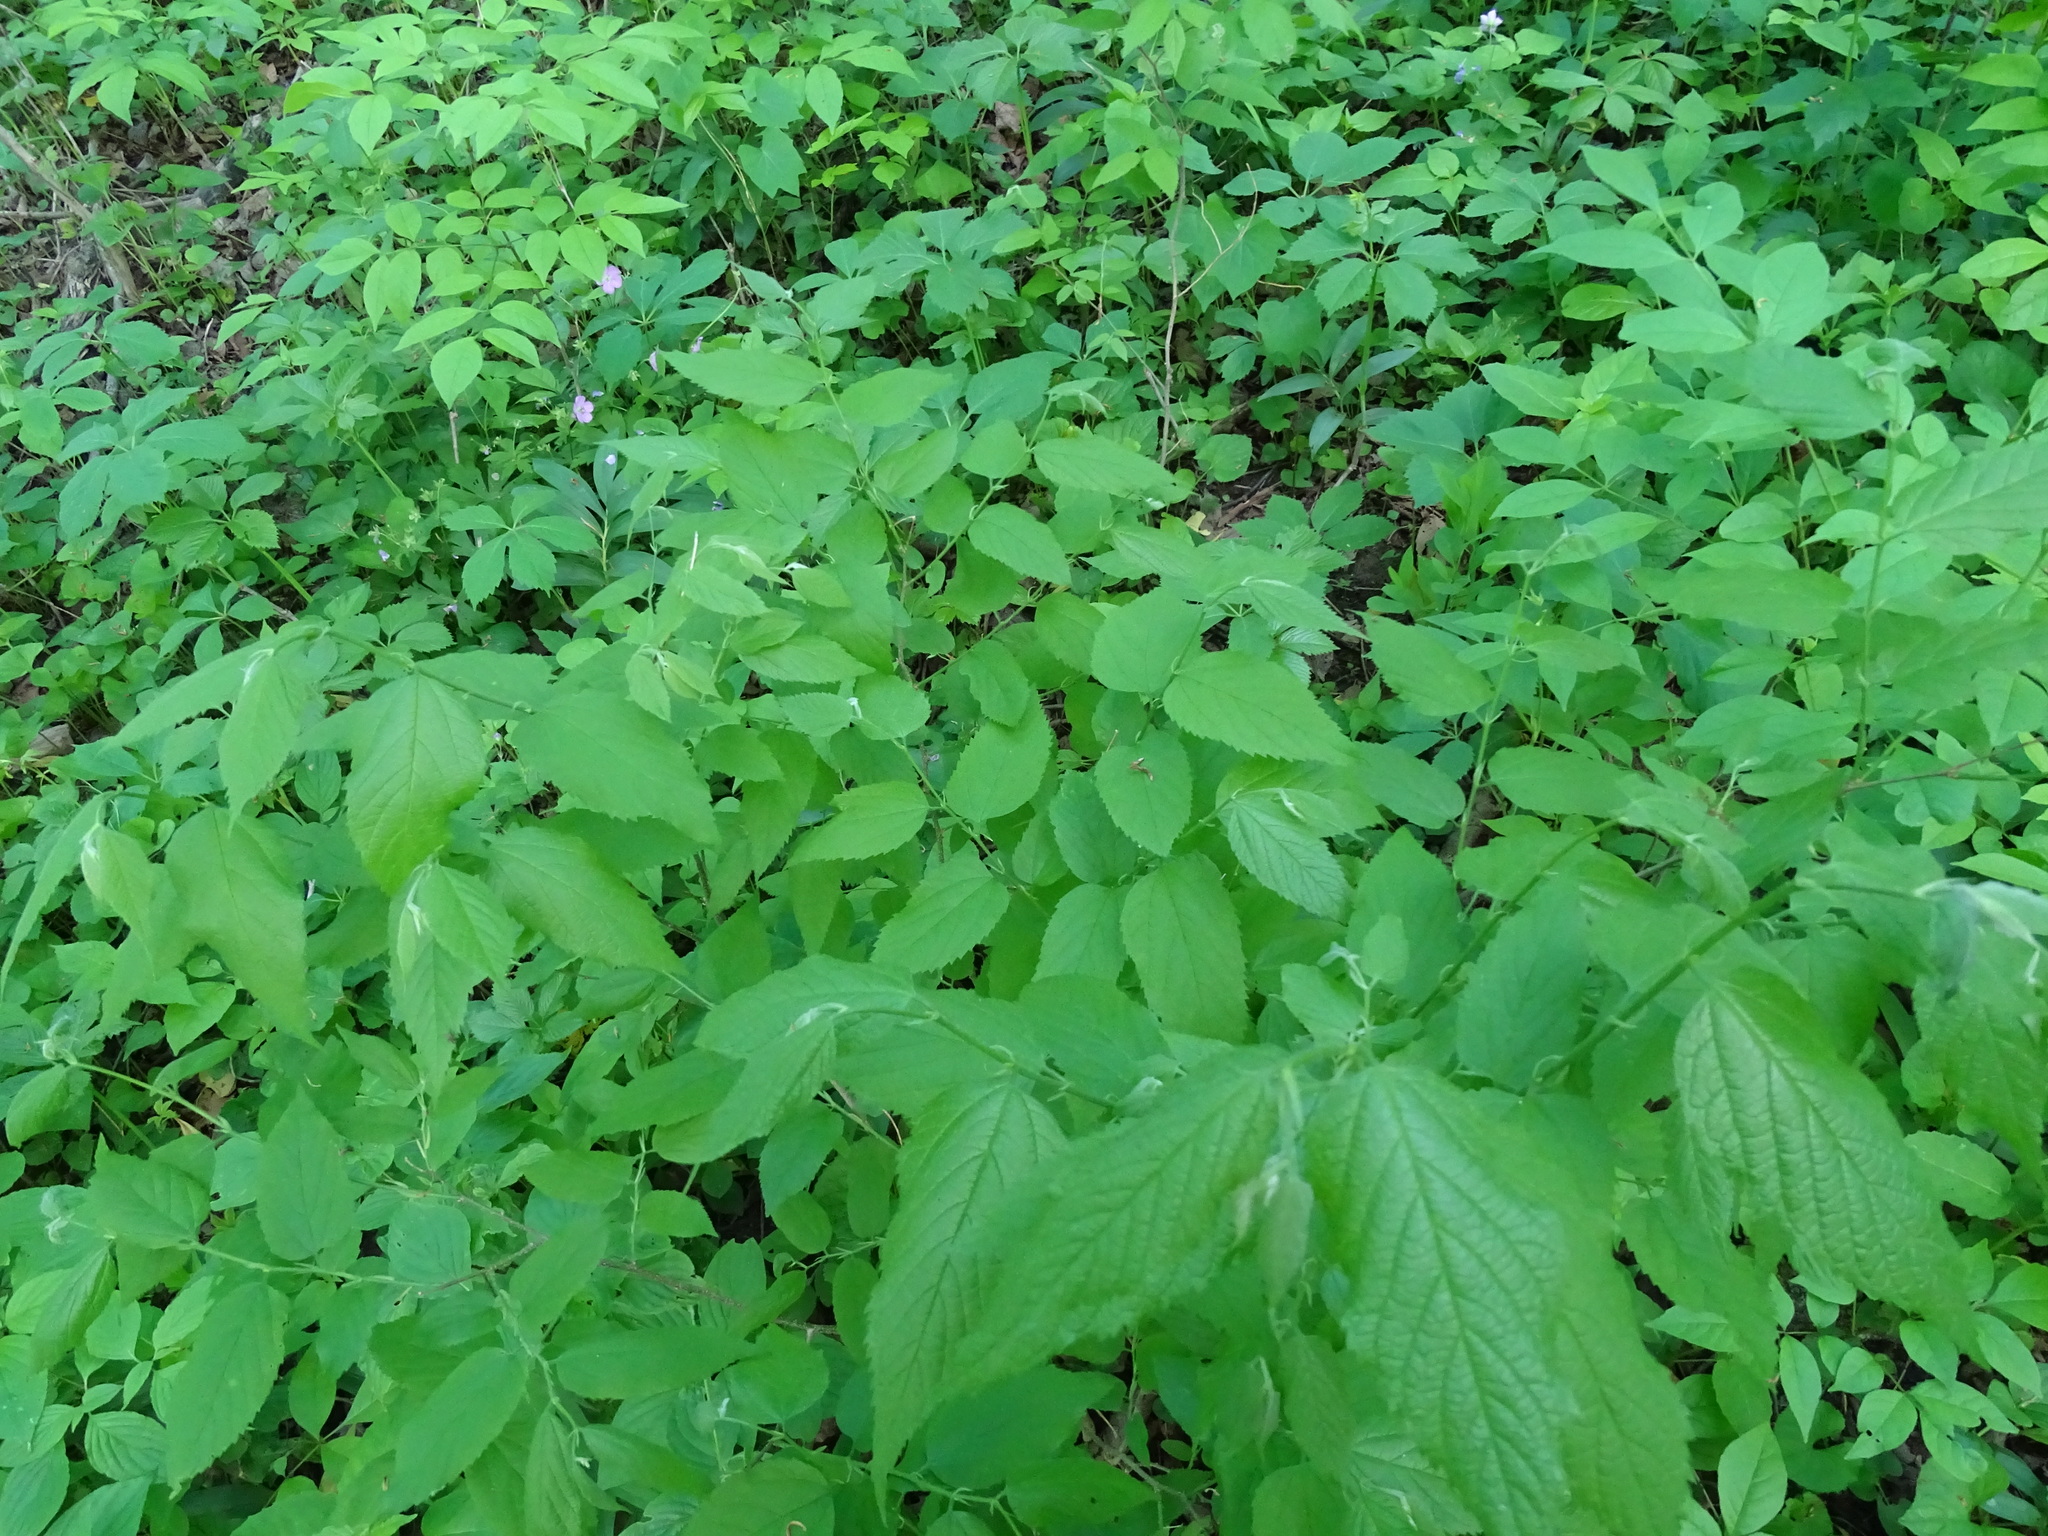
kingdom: Plantae
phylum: Tracheophyta
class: Magnoliopsida
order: Rosales
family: Cannabaceae
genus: Celtis
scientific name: Celtis occidentalis
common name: Common hackberry
